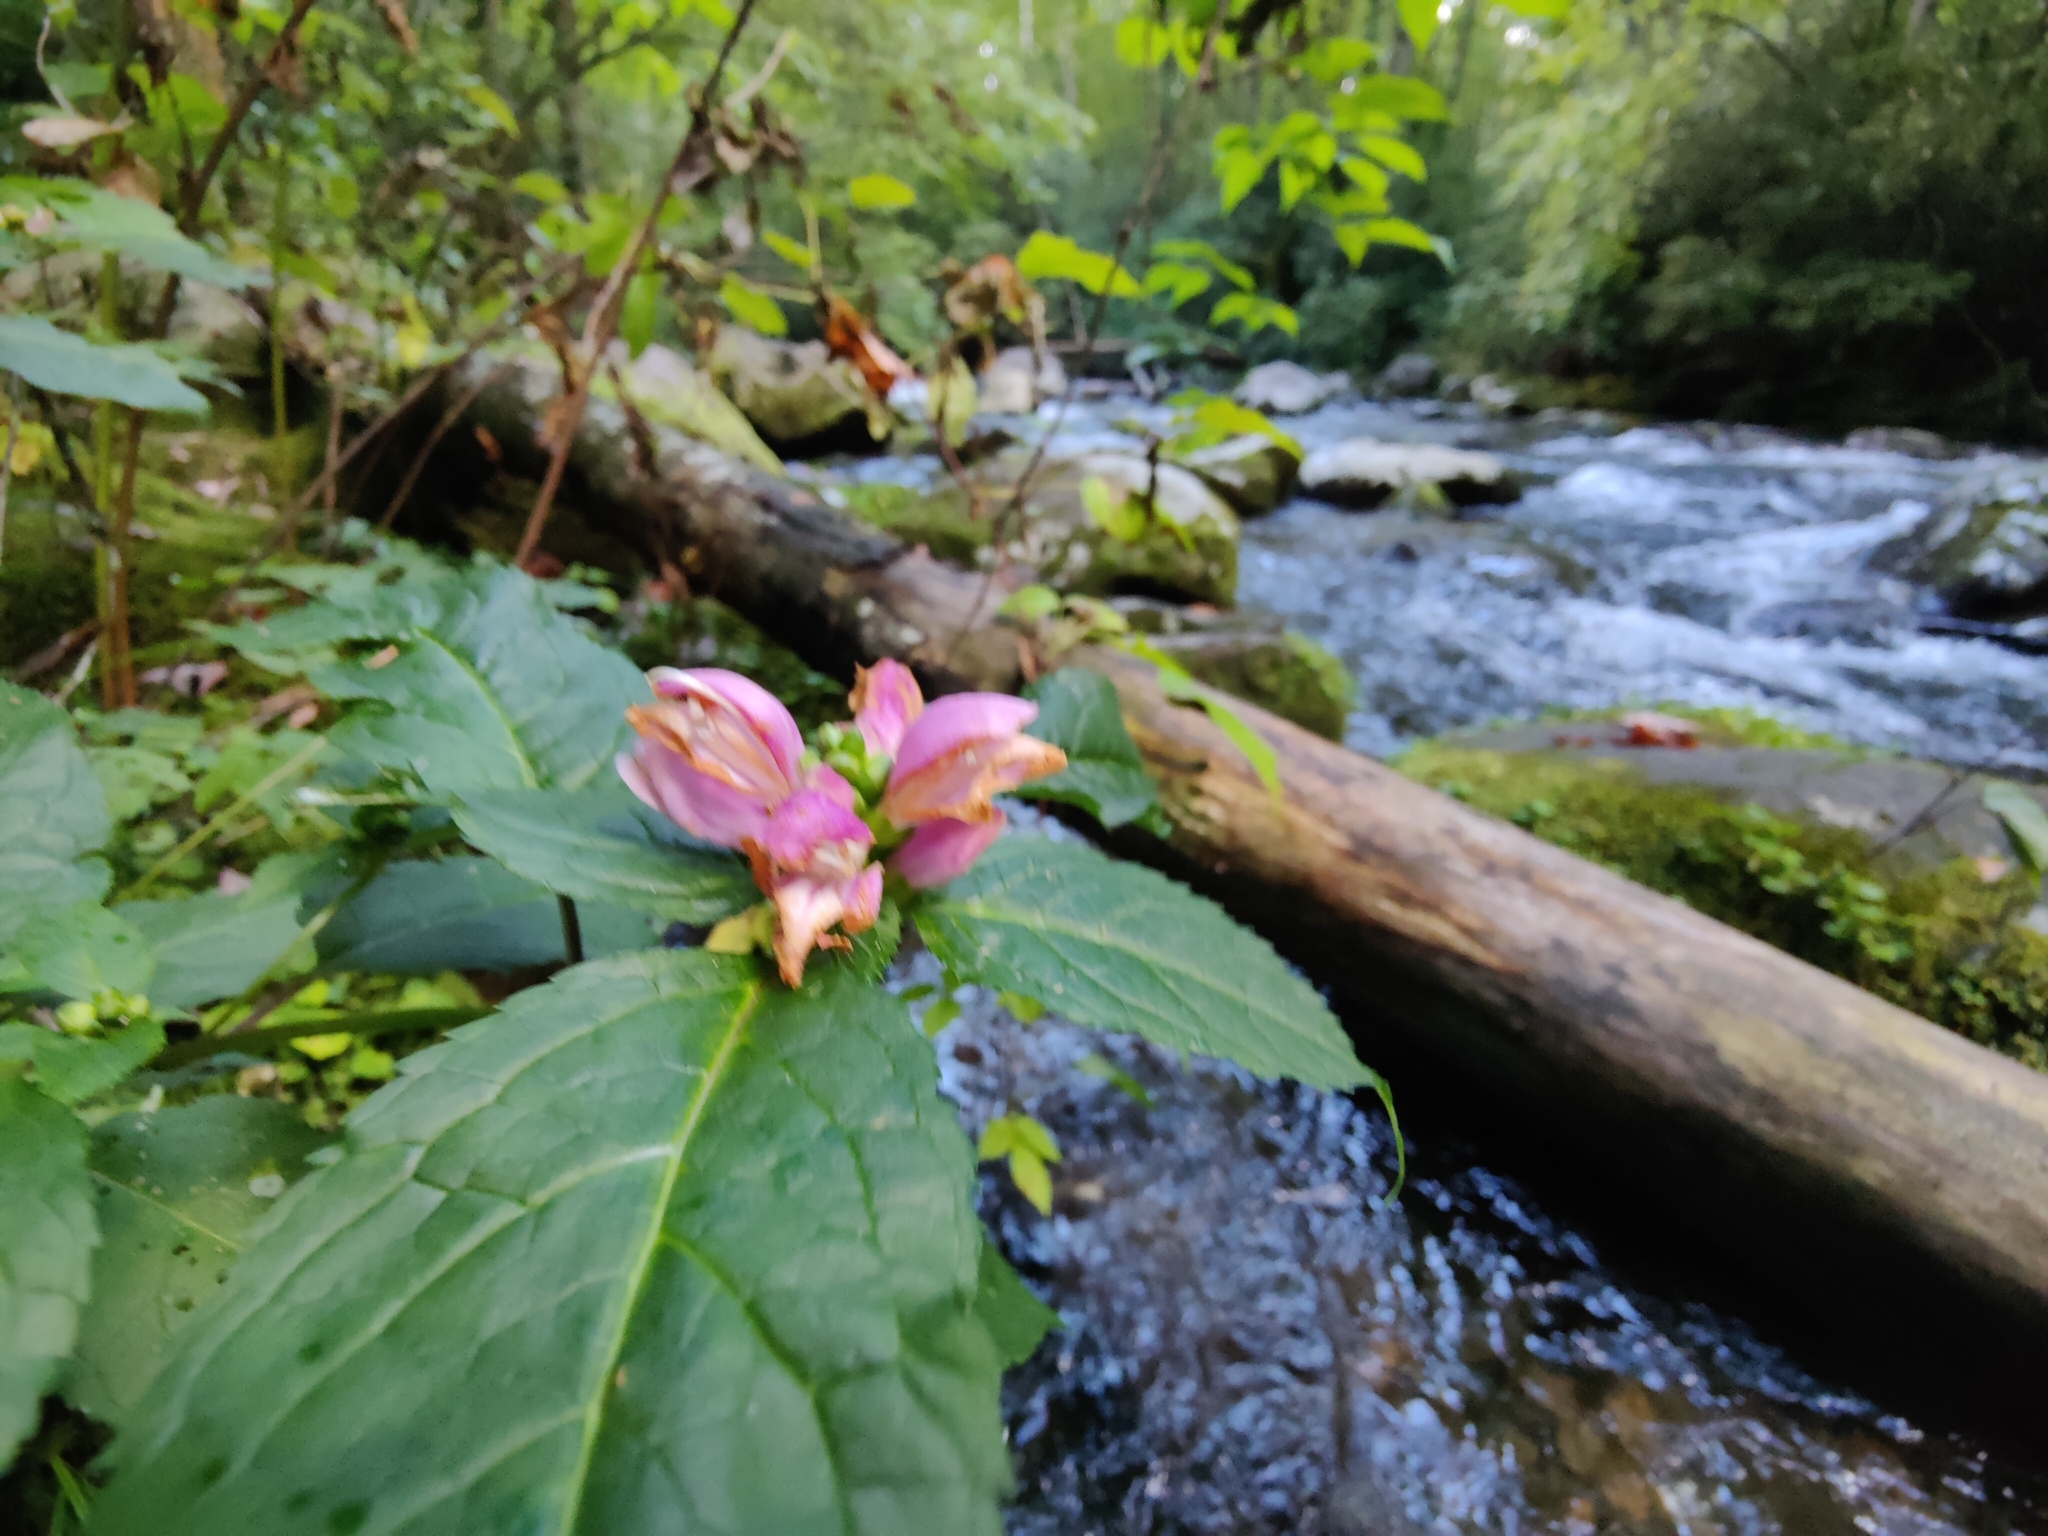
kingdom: Plantae
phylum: Tracheophyta
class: Magnoliopsida
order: Lamiales
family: Plantaginaceae
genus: Chelone
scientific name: Chelone lyonii
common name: Pink turtlehead
